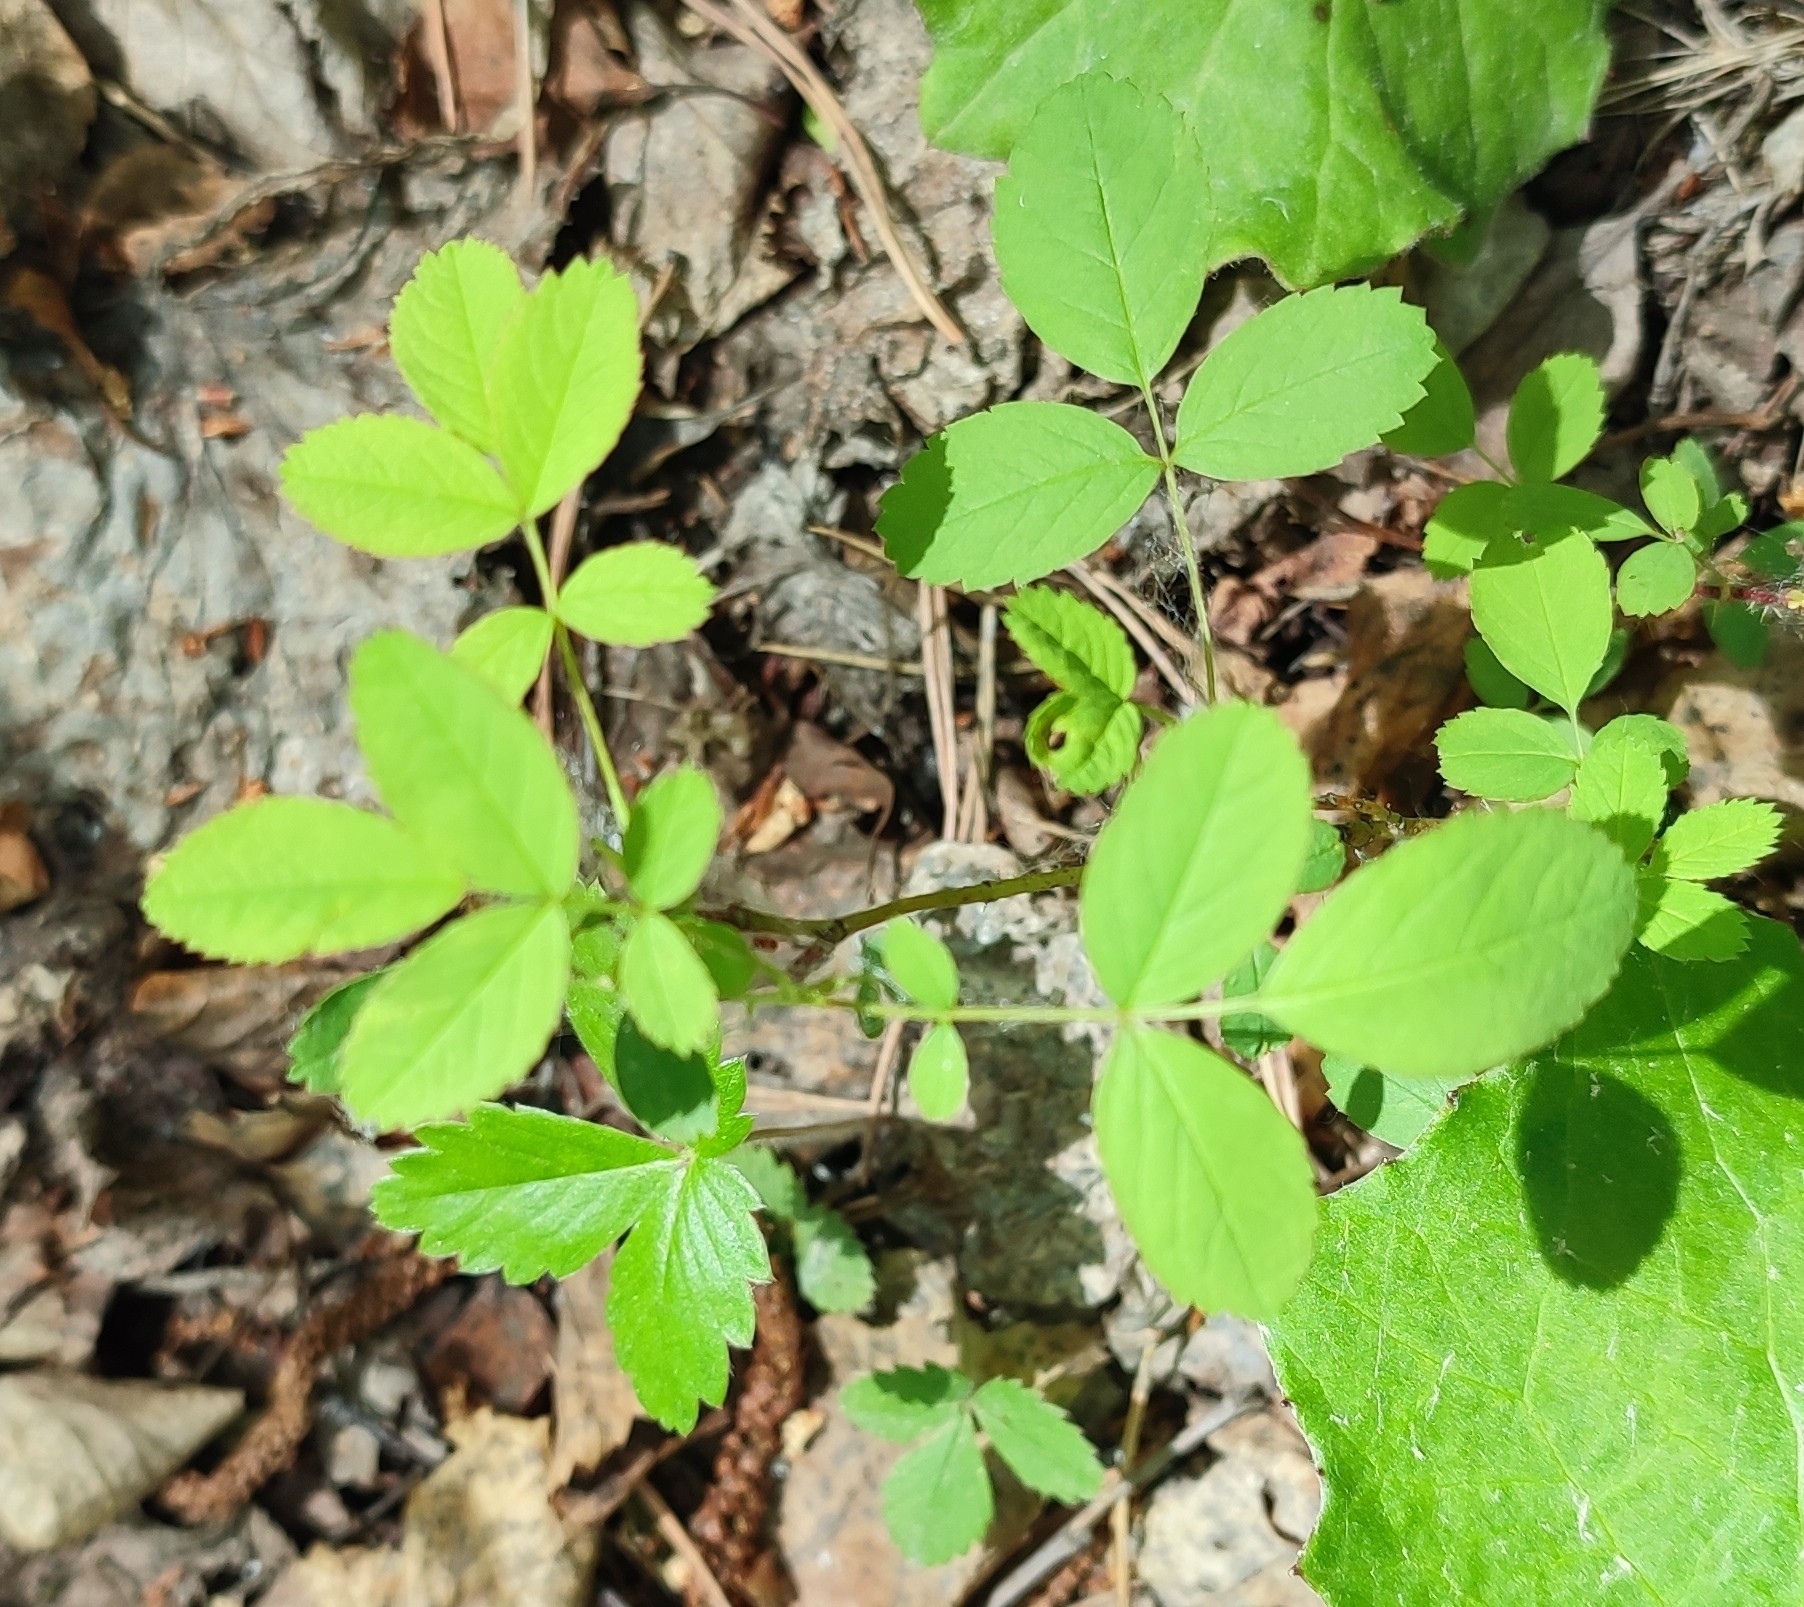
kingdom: Plantae
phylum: Tracheophyta
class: Magnoliopsida
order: Rosales
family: Rosaceae
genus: Rosa
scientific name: Rosa majalis
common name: Cinnamon rose
